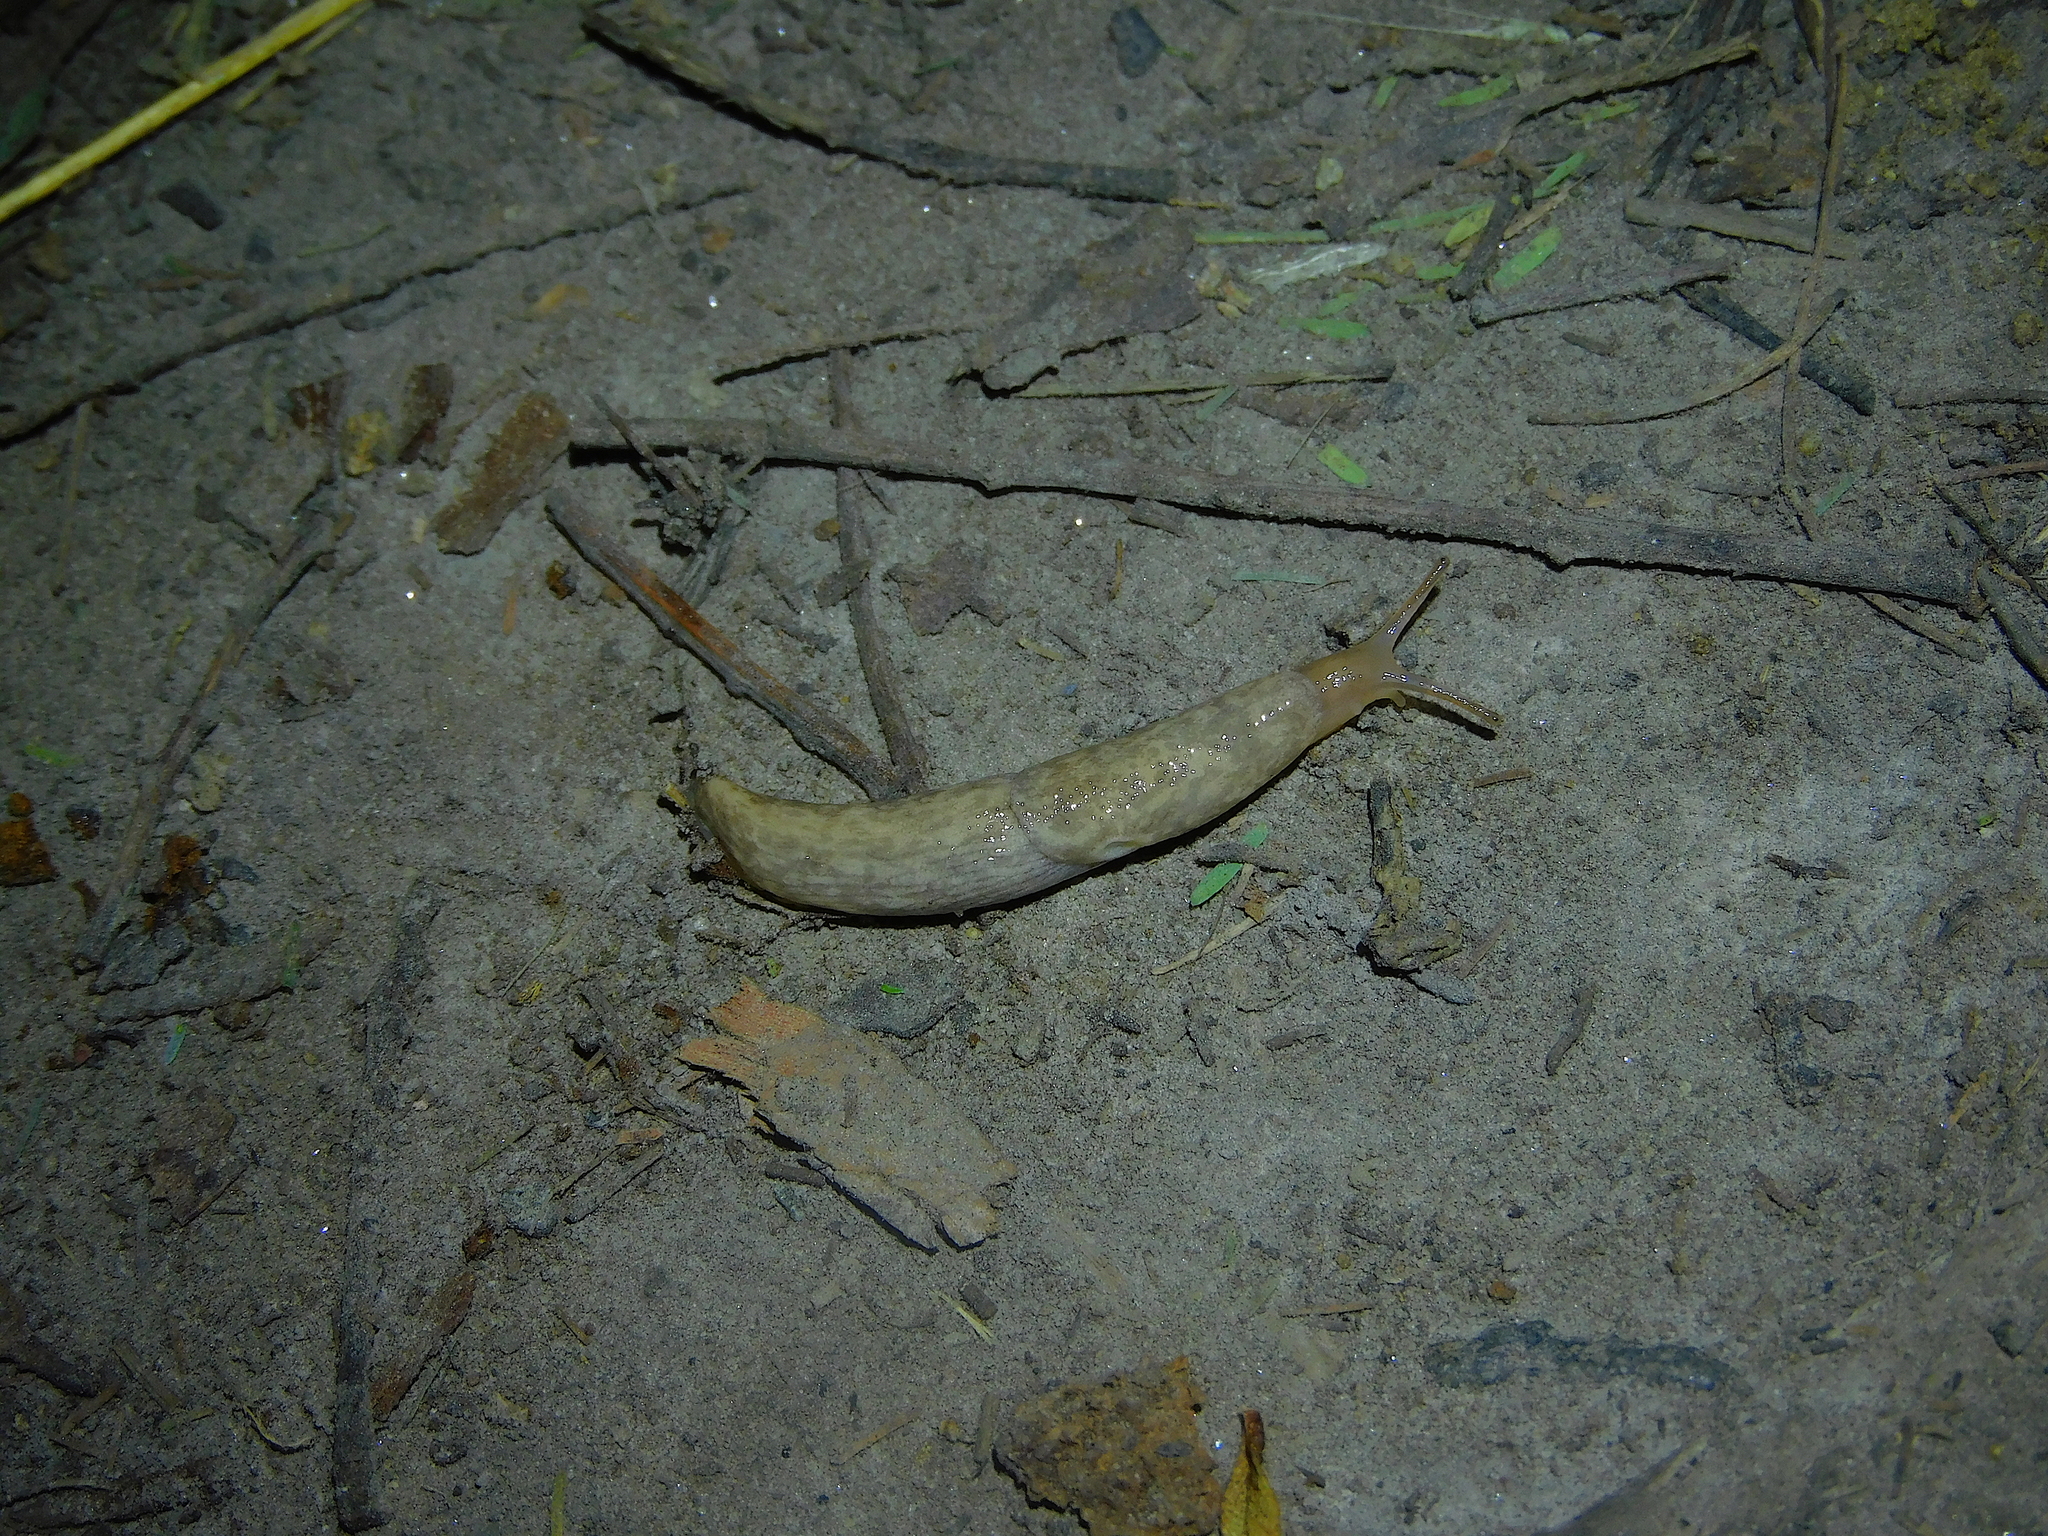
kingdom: Animalia
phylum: Mollusca
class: Gastropoda
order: Stylommatophora
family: Agriolimacidae
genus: Deroceras
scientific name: Deroceras reticulatum
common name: Gray field slug
